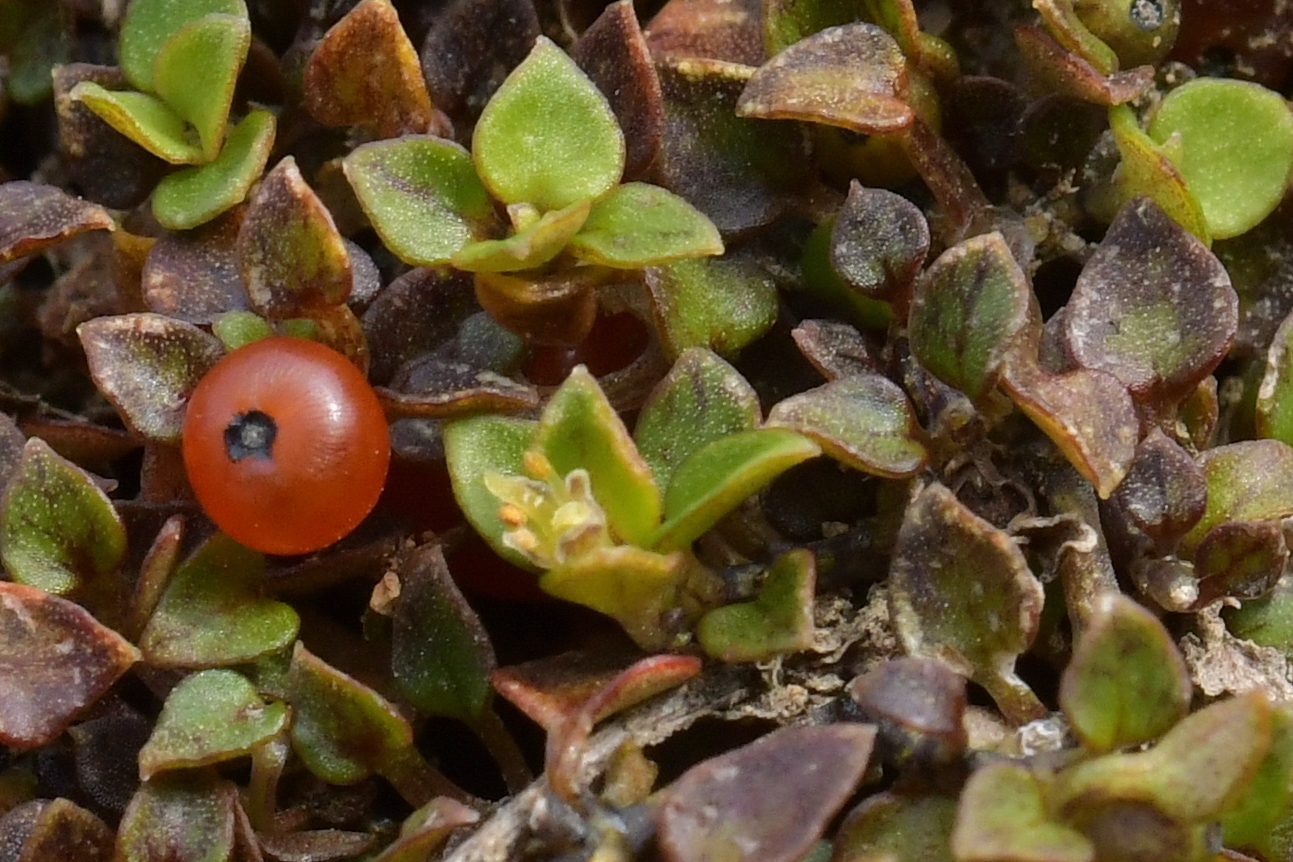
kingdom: Plantae
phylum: Tracheophyta
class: Magnoliopsida
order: Gentianales
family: Rubiaceae
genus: Nertera
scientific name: Nertera granadensis
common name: Beadplant
